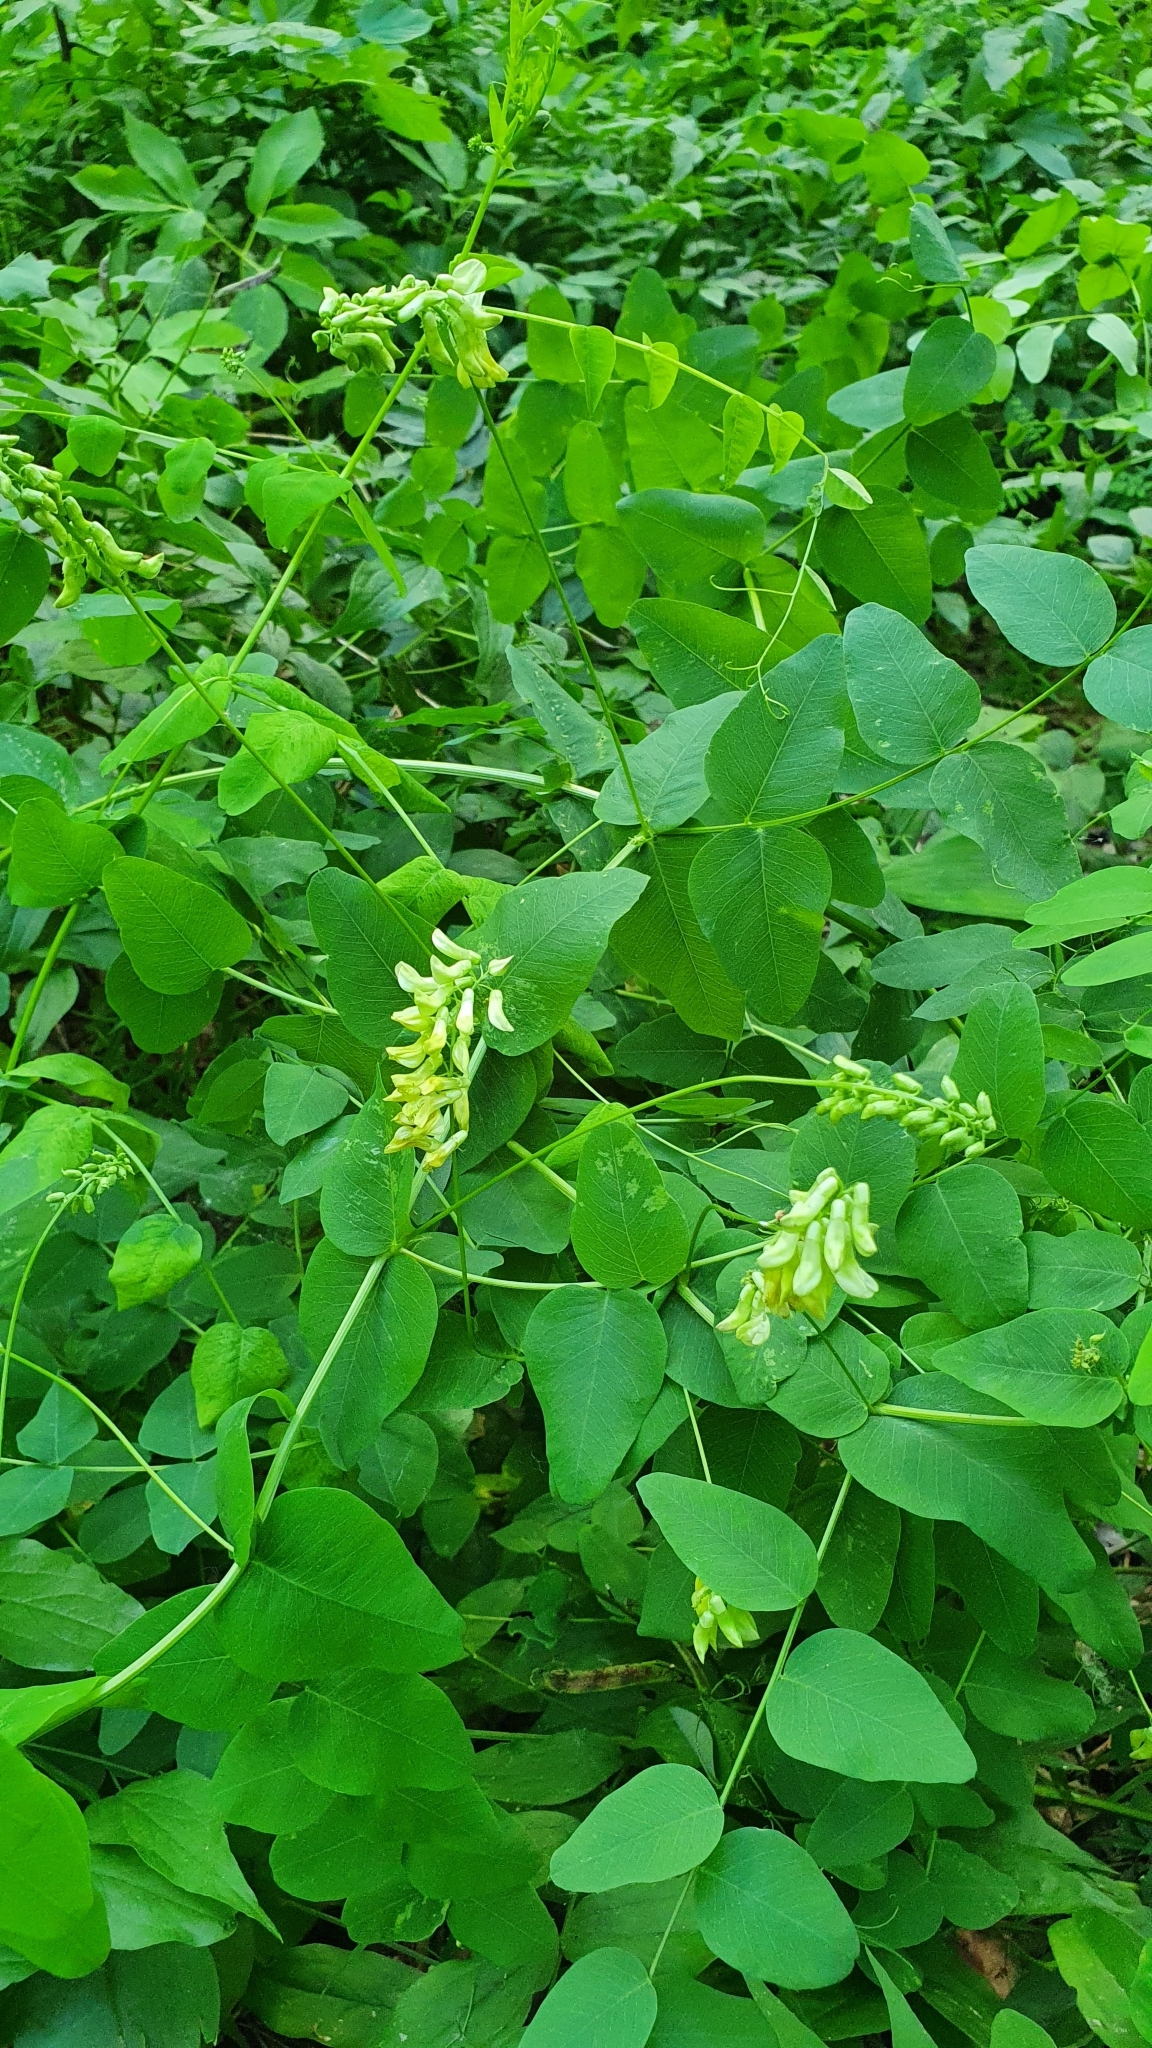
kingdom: Plantae
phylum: Tracheophyta
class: Magnoliopsida
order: Fabales
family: Fabaceae
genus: Vicia
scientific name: Vicia pisiformis
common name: Pale-flower vetch
